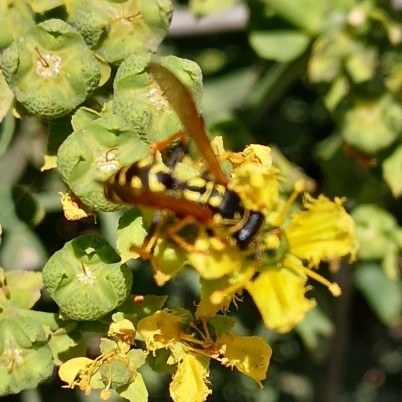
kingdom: Animalia
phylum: Arthropoda
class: Insecta
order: Hymenoptera
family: Eumenidae
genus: Polistes
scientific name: Polistes dominula
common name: Paper wasp
